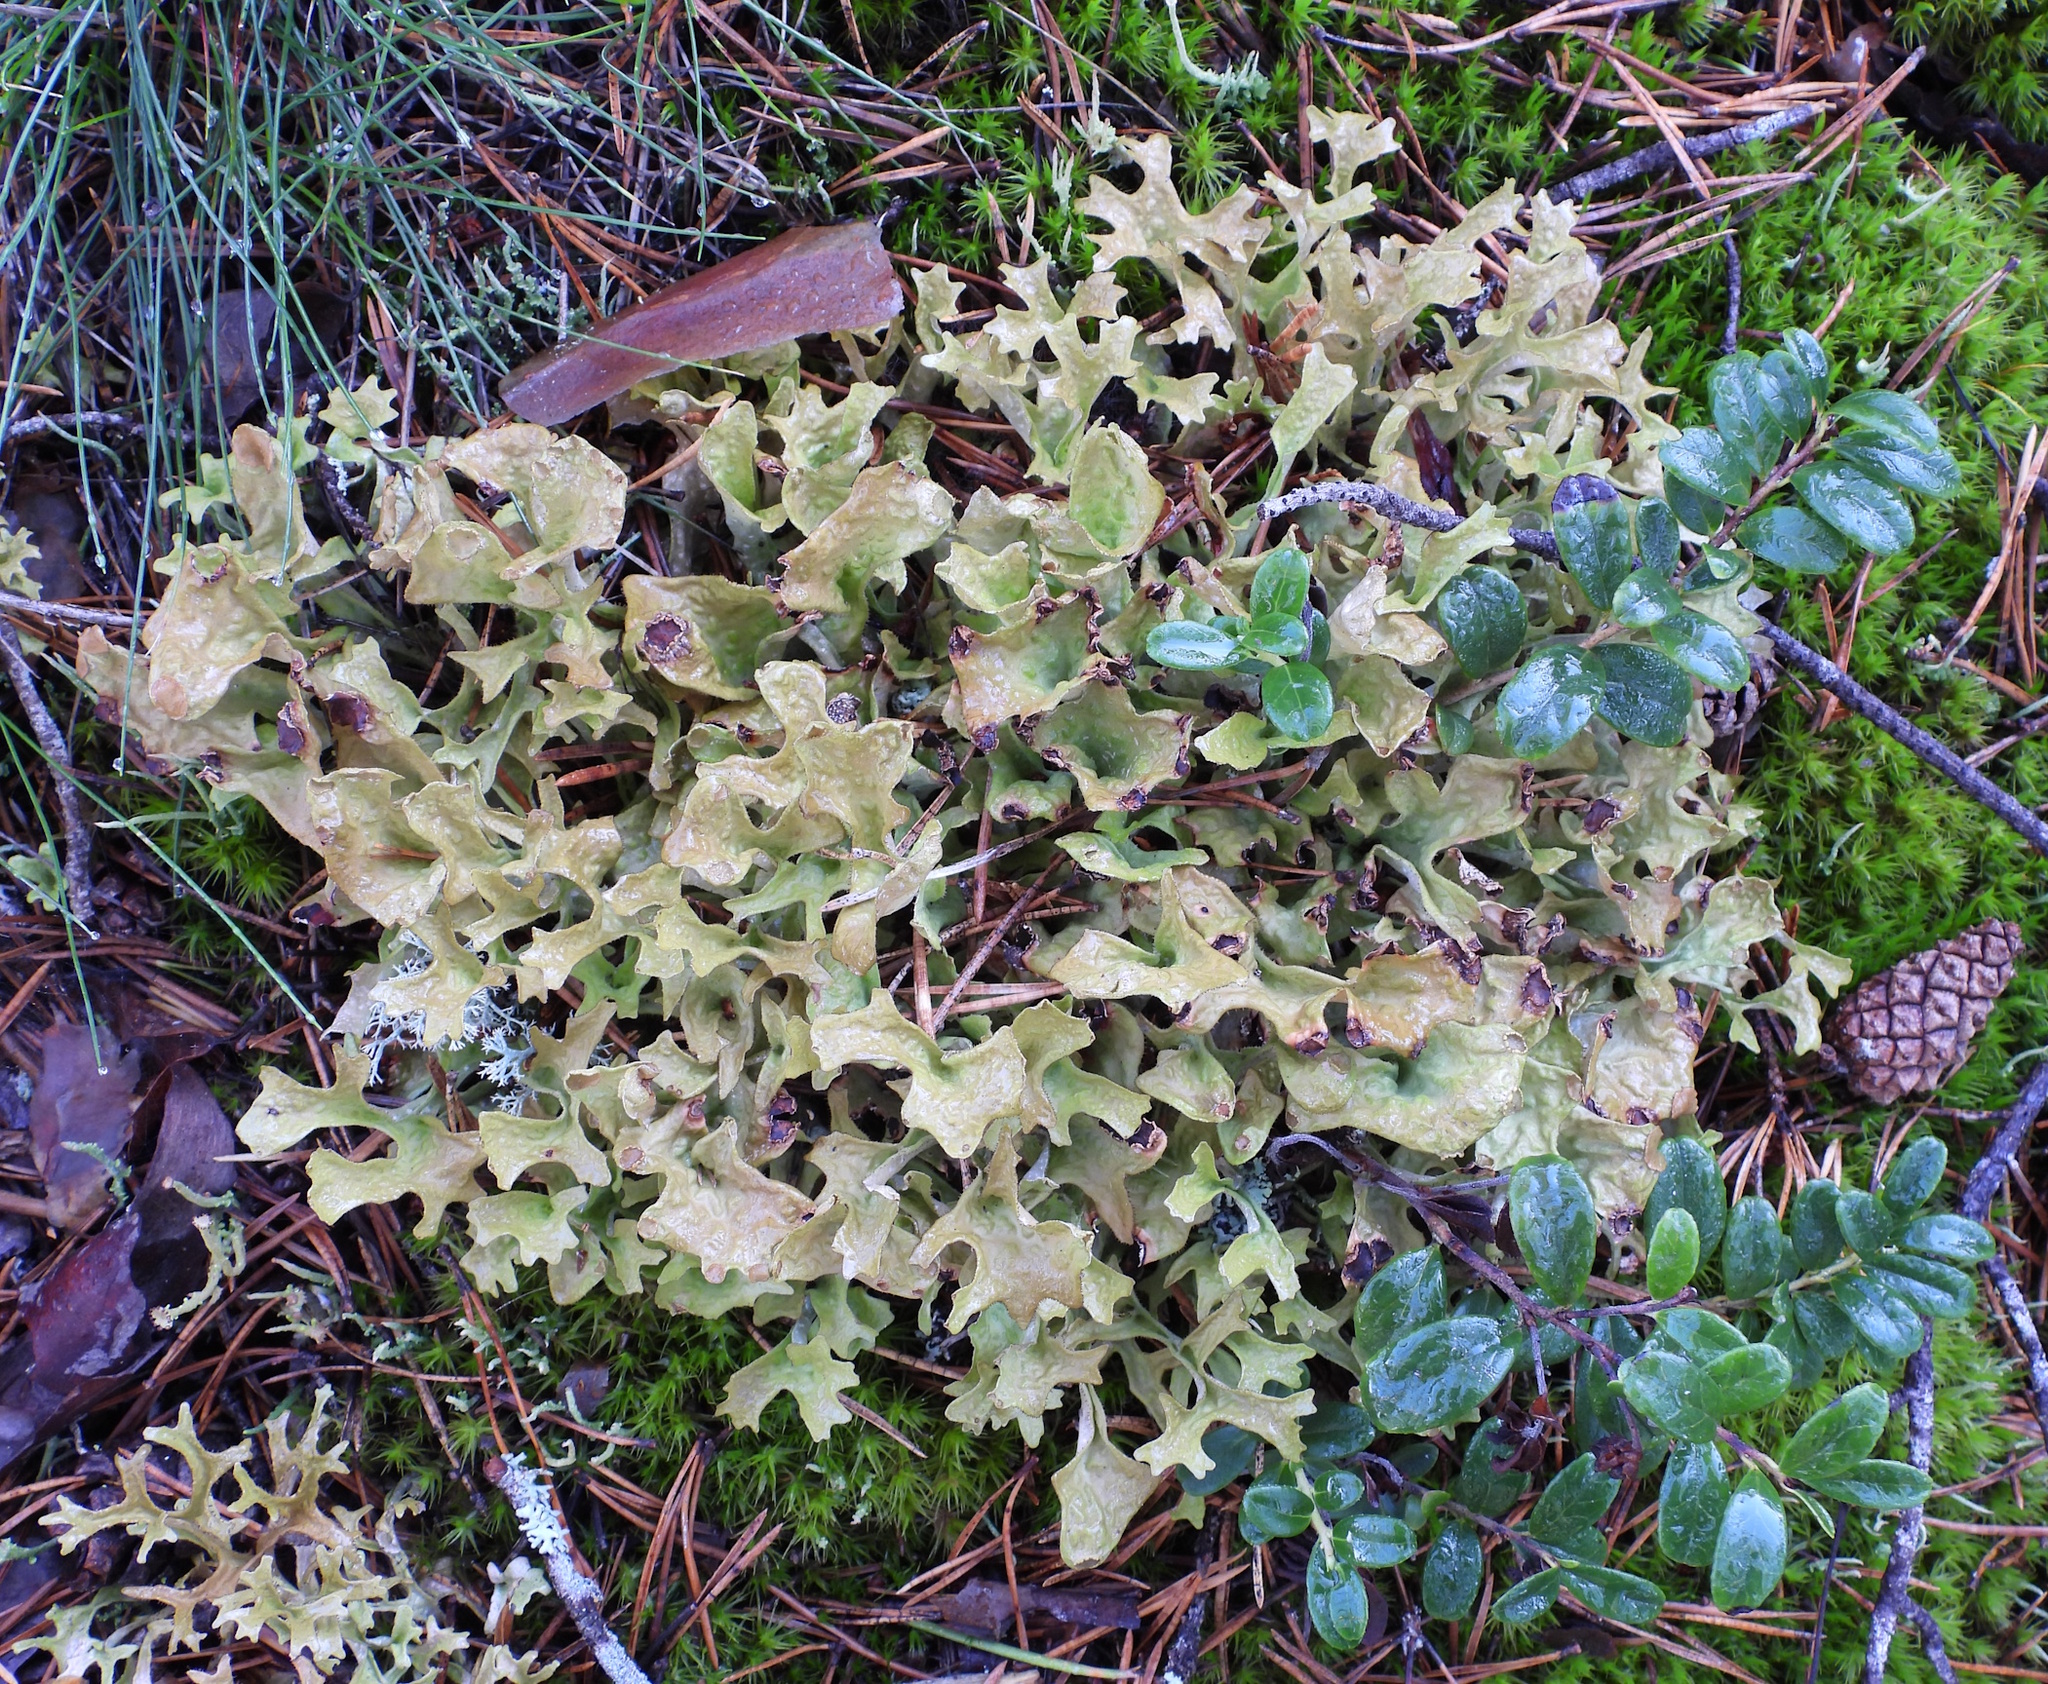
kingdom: Fungi
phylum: Ascomycota
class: Lecanoromycetes
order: Lecanorales
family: Parmeliaceae
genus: Cetraria
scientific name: Cetraria islandica
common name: Iceland lichen
